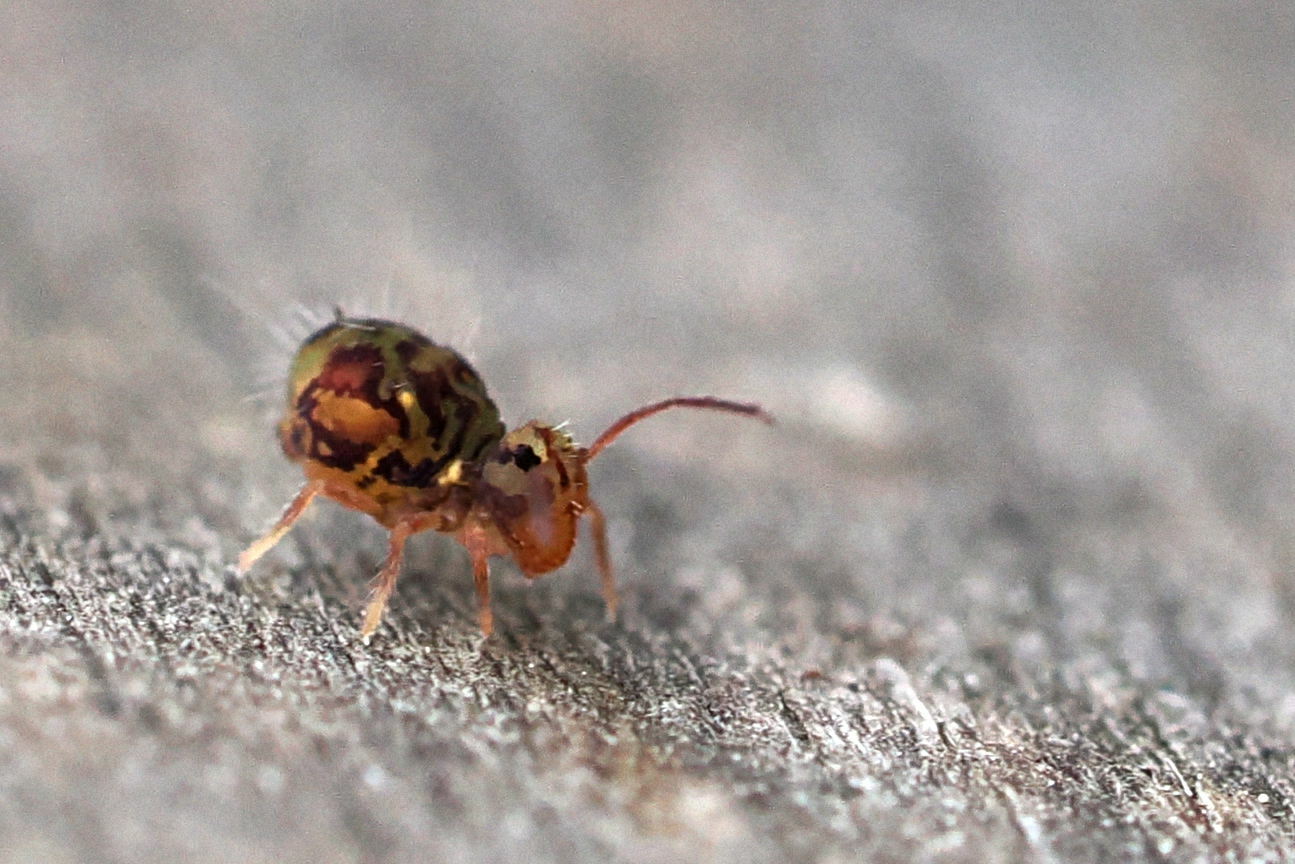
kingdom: Animalia
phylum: Arthropoda
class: Collembola
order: Symphypleona
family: Dicyrtomidae
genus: Dicyrtomina
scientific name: Dicyrtomina minuta
